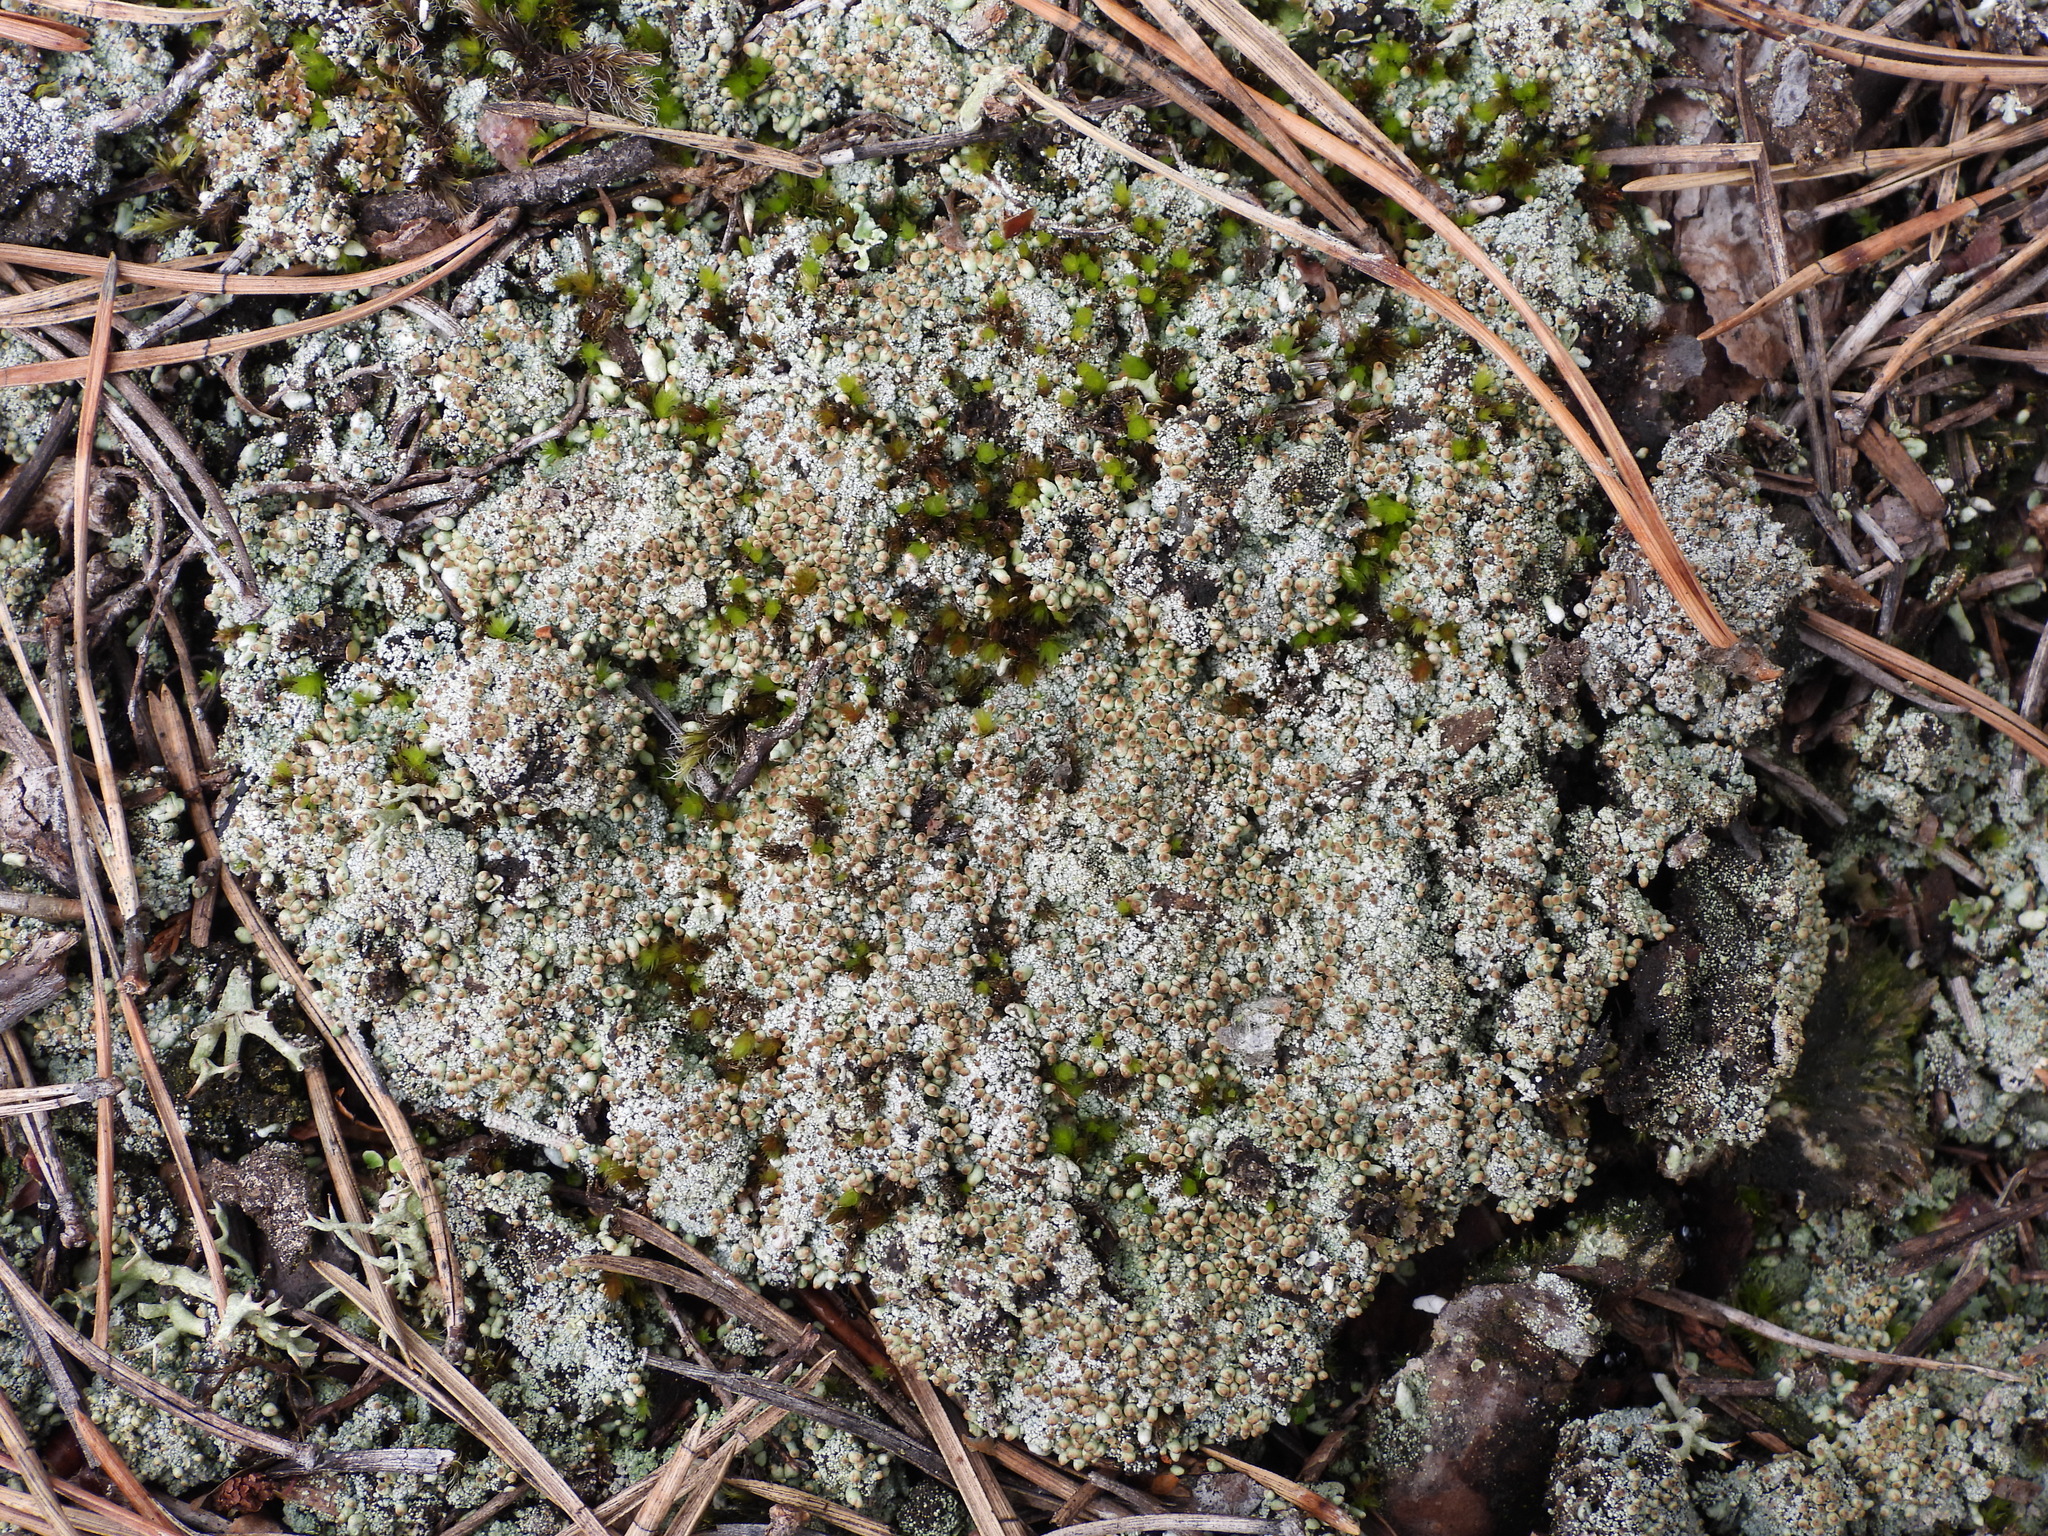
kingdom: Fungi
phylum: Ascomycota
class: Lecanoromycetes
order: Lecanorales
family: Cladoniaceae
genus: Pycnothelia
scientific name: Pycnothelia papillaria
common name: Nipple lichen
